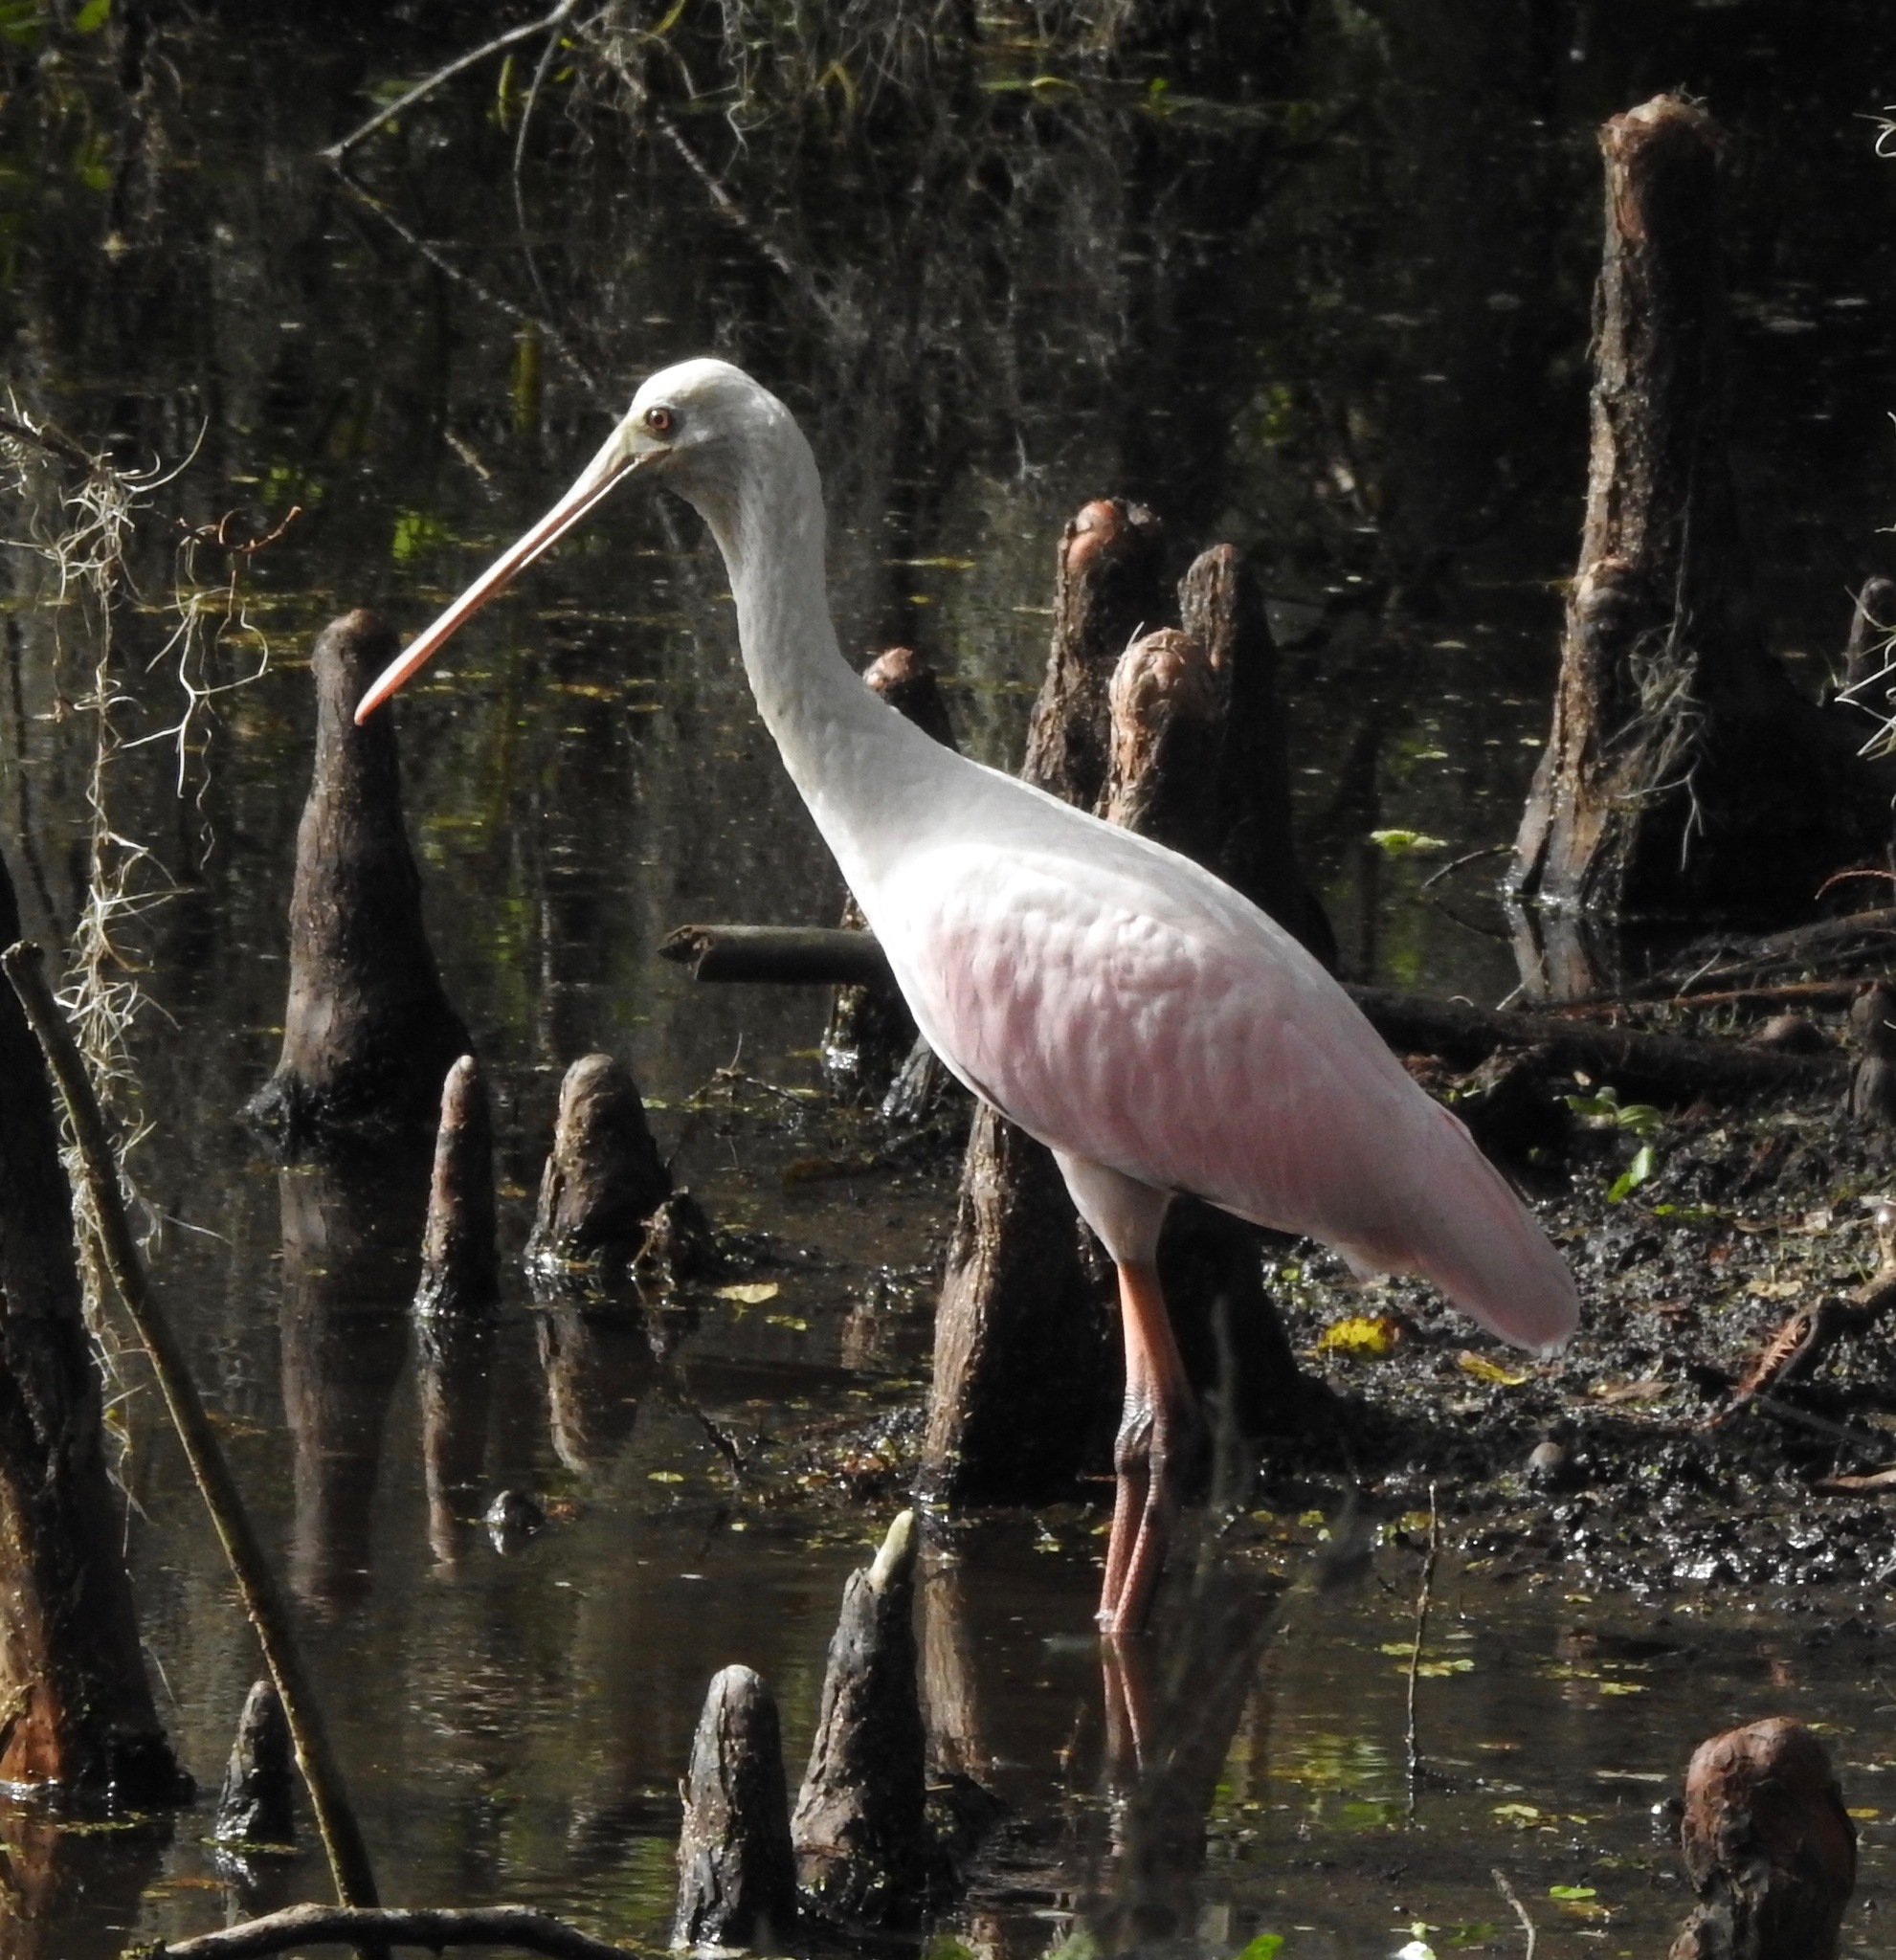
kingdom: Animalia
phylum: Chordata
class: Aves
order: Pelecaniformes
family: Threskiornithidae
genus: Platalea
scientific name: Platalea ajaja
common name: Roseate spoonbill
